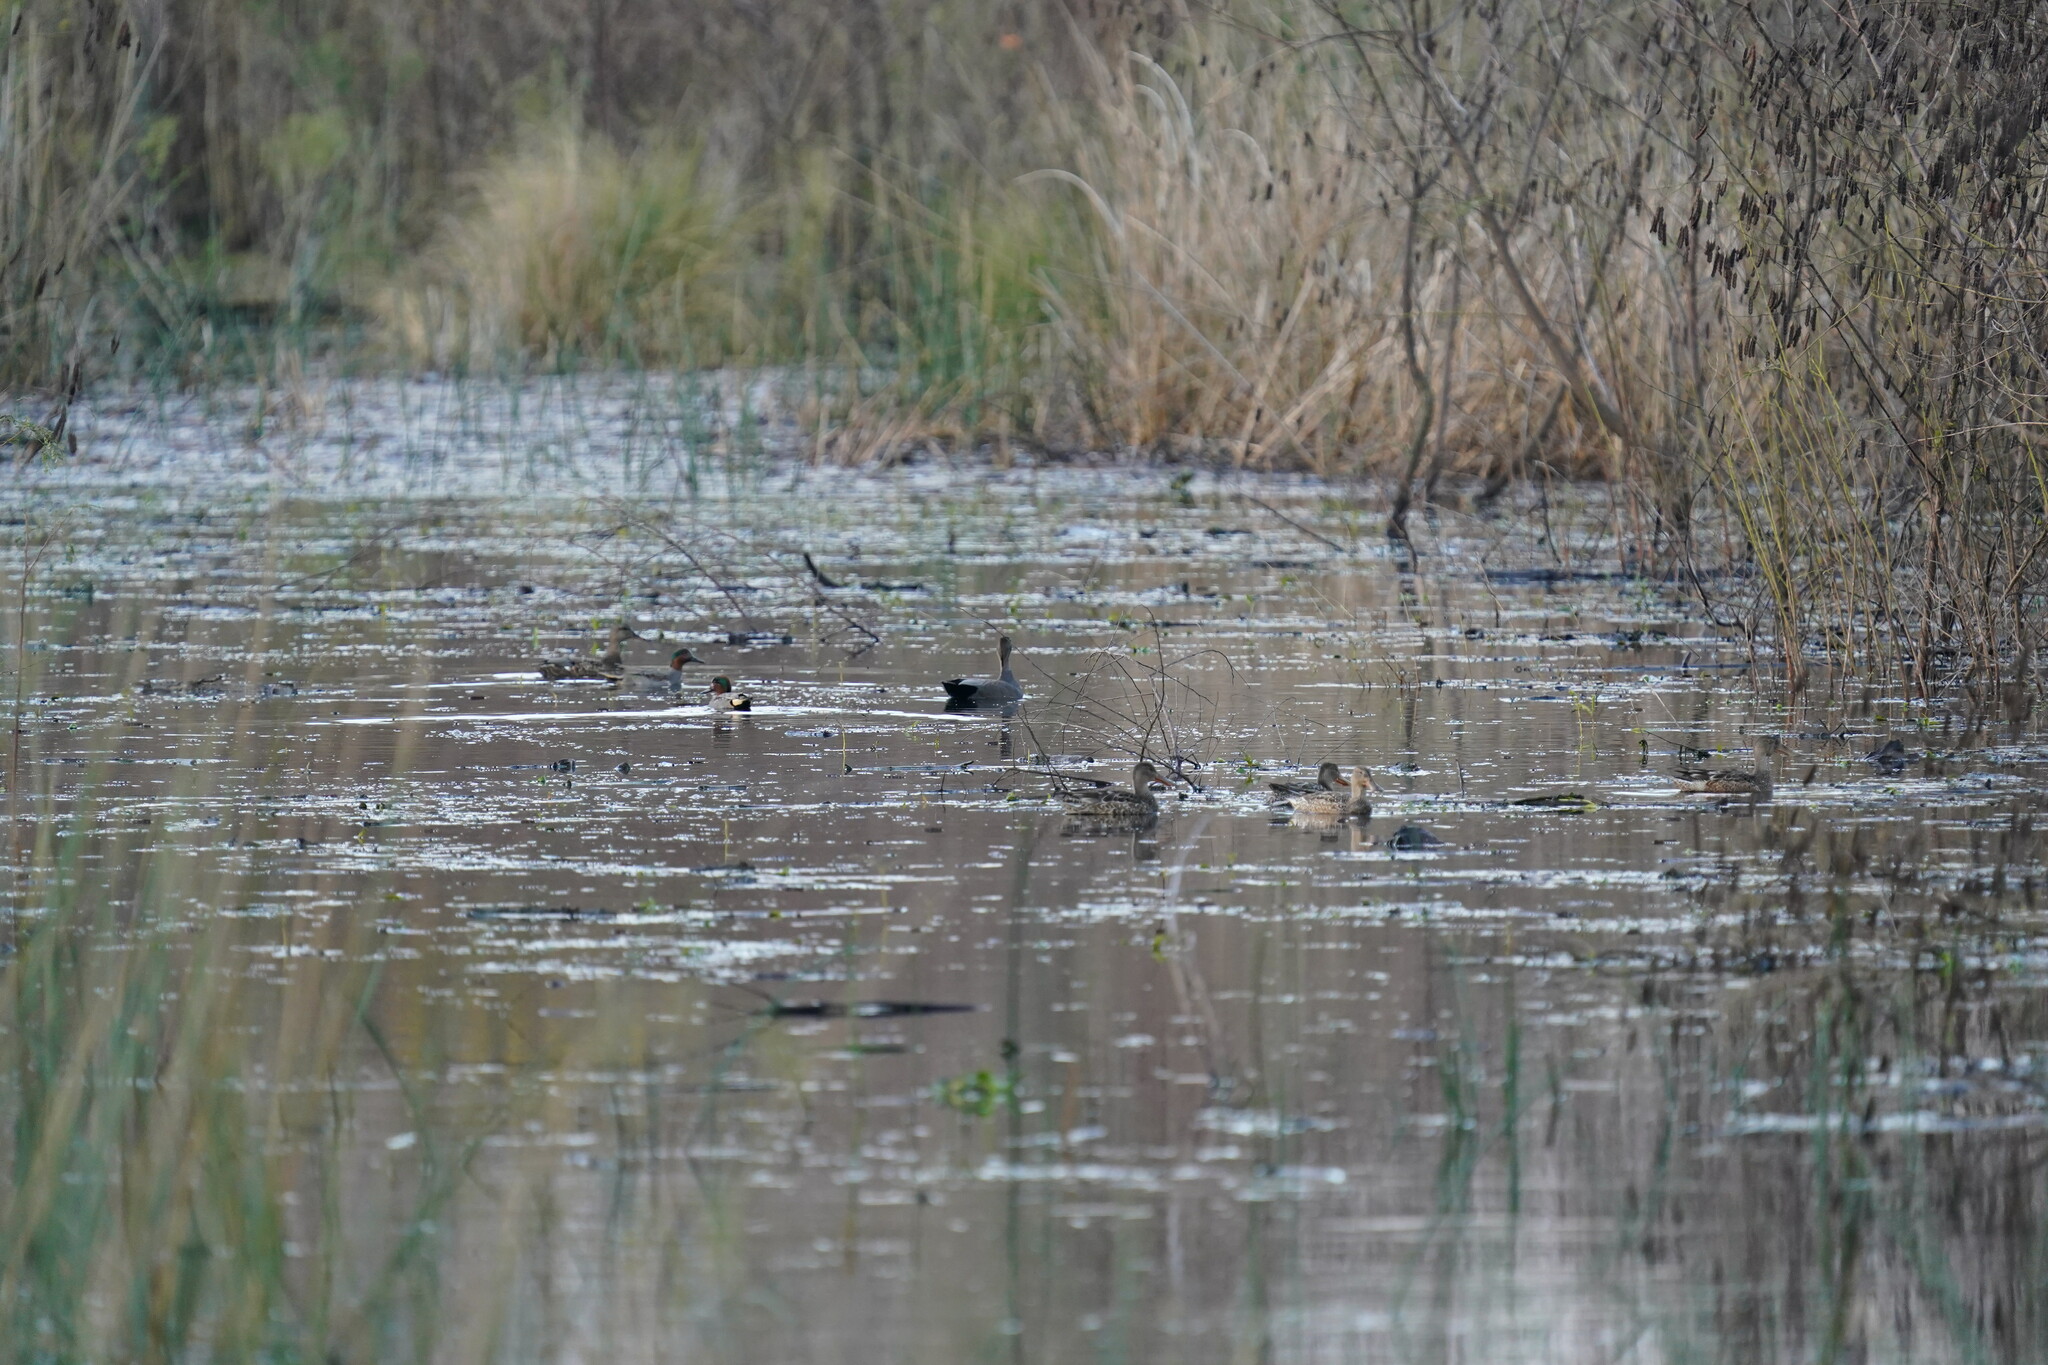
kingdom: Animalia
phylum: Chordata
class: Aves
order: Anseriformes
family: Anatidae
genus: Spatula
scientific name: Spatula clypeata
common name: Northern shoveler
